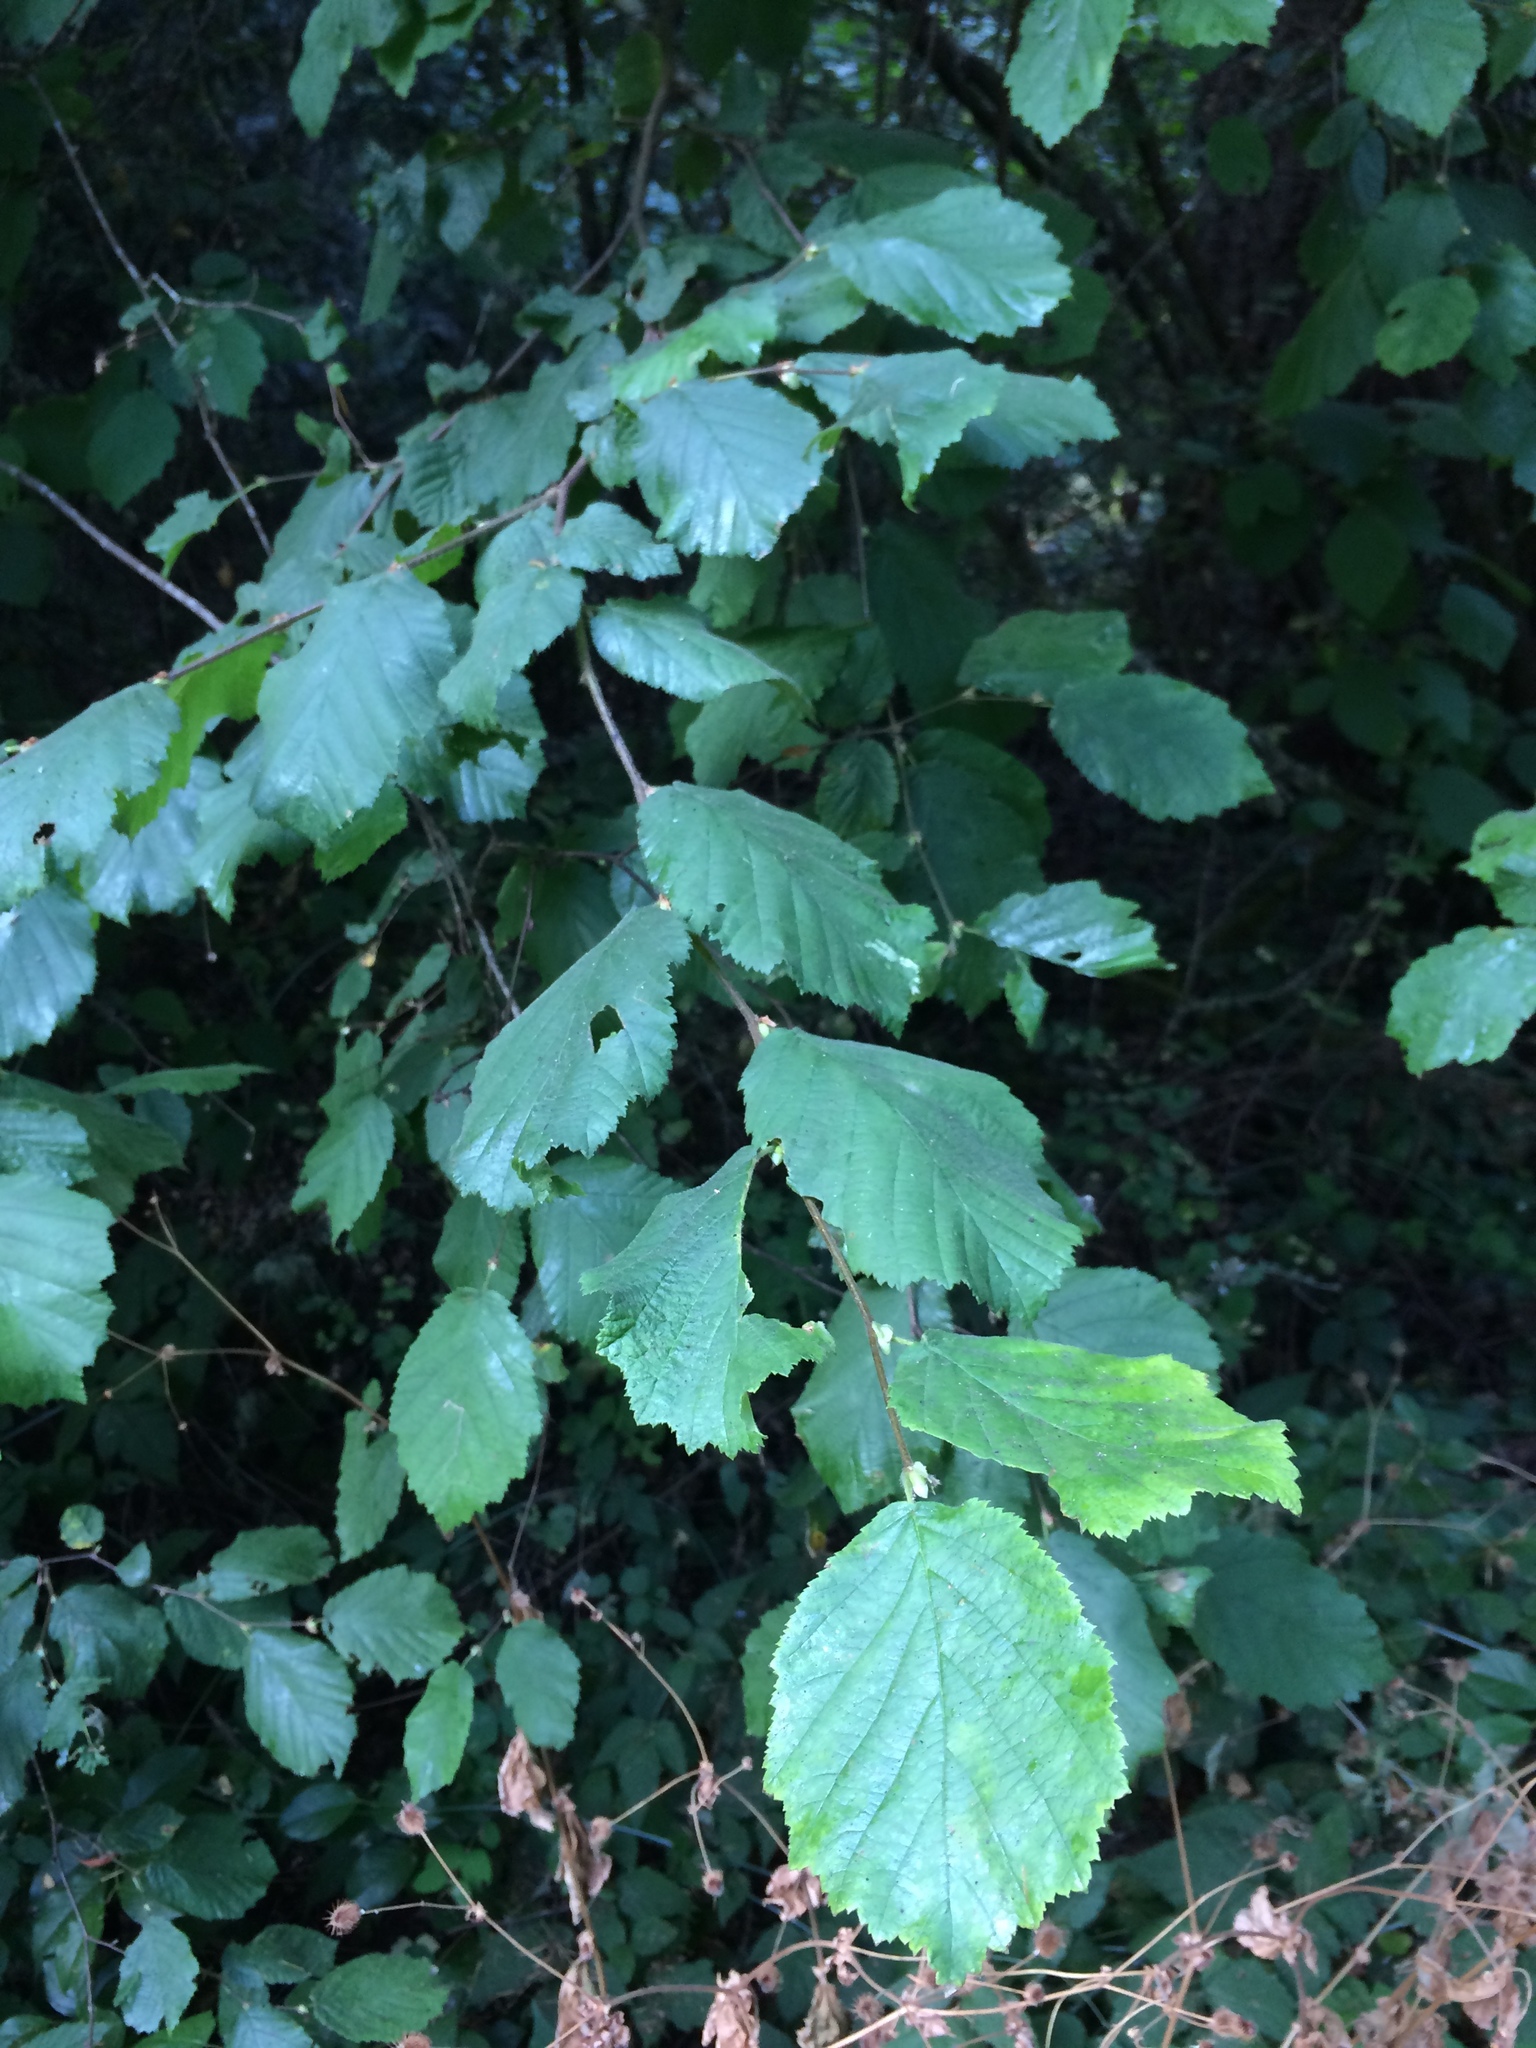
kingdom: Plantae
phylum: Tracheophyta
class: Magnoliopsida
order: Fagales
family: Betulaceae
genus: Corylus
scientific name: Corylus cornuta
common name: Beaked hazel
